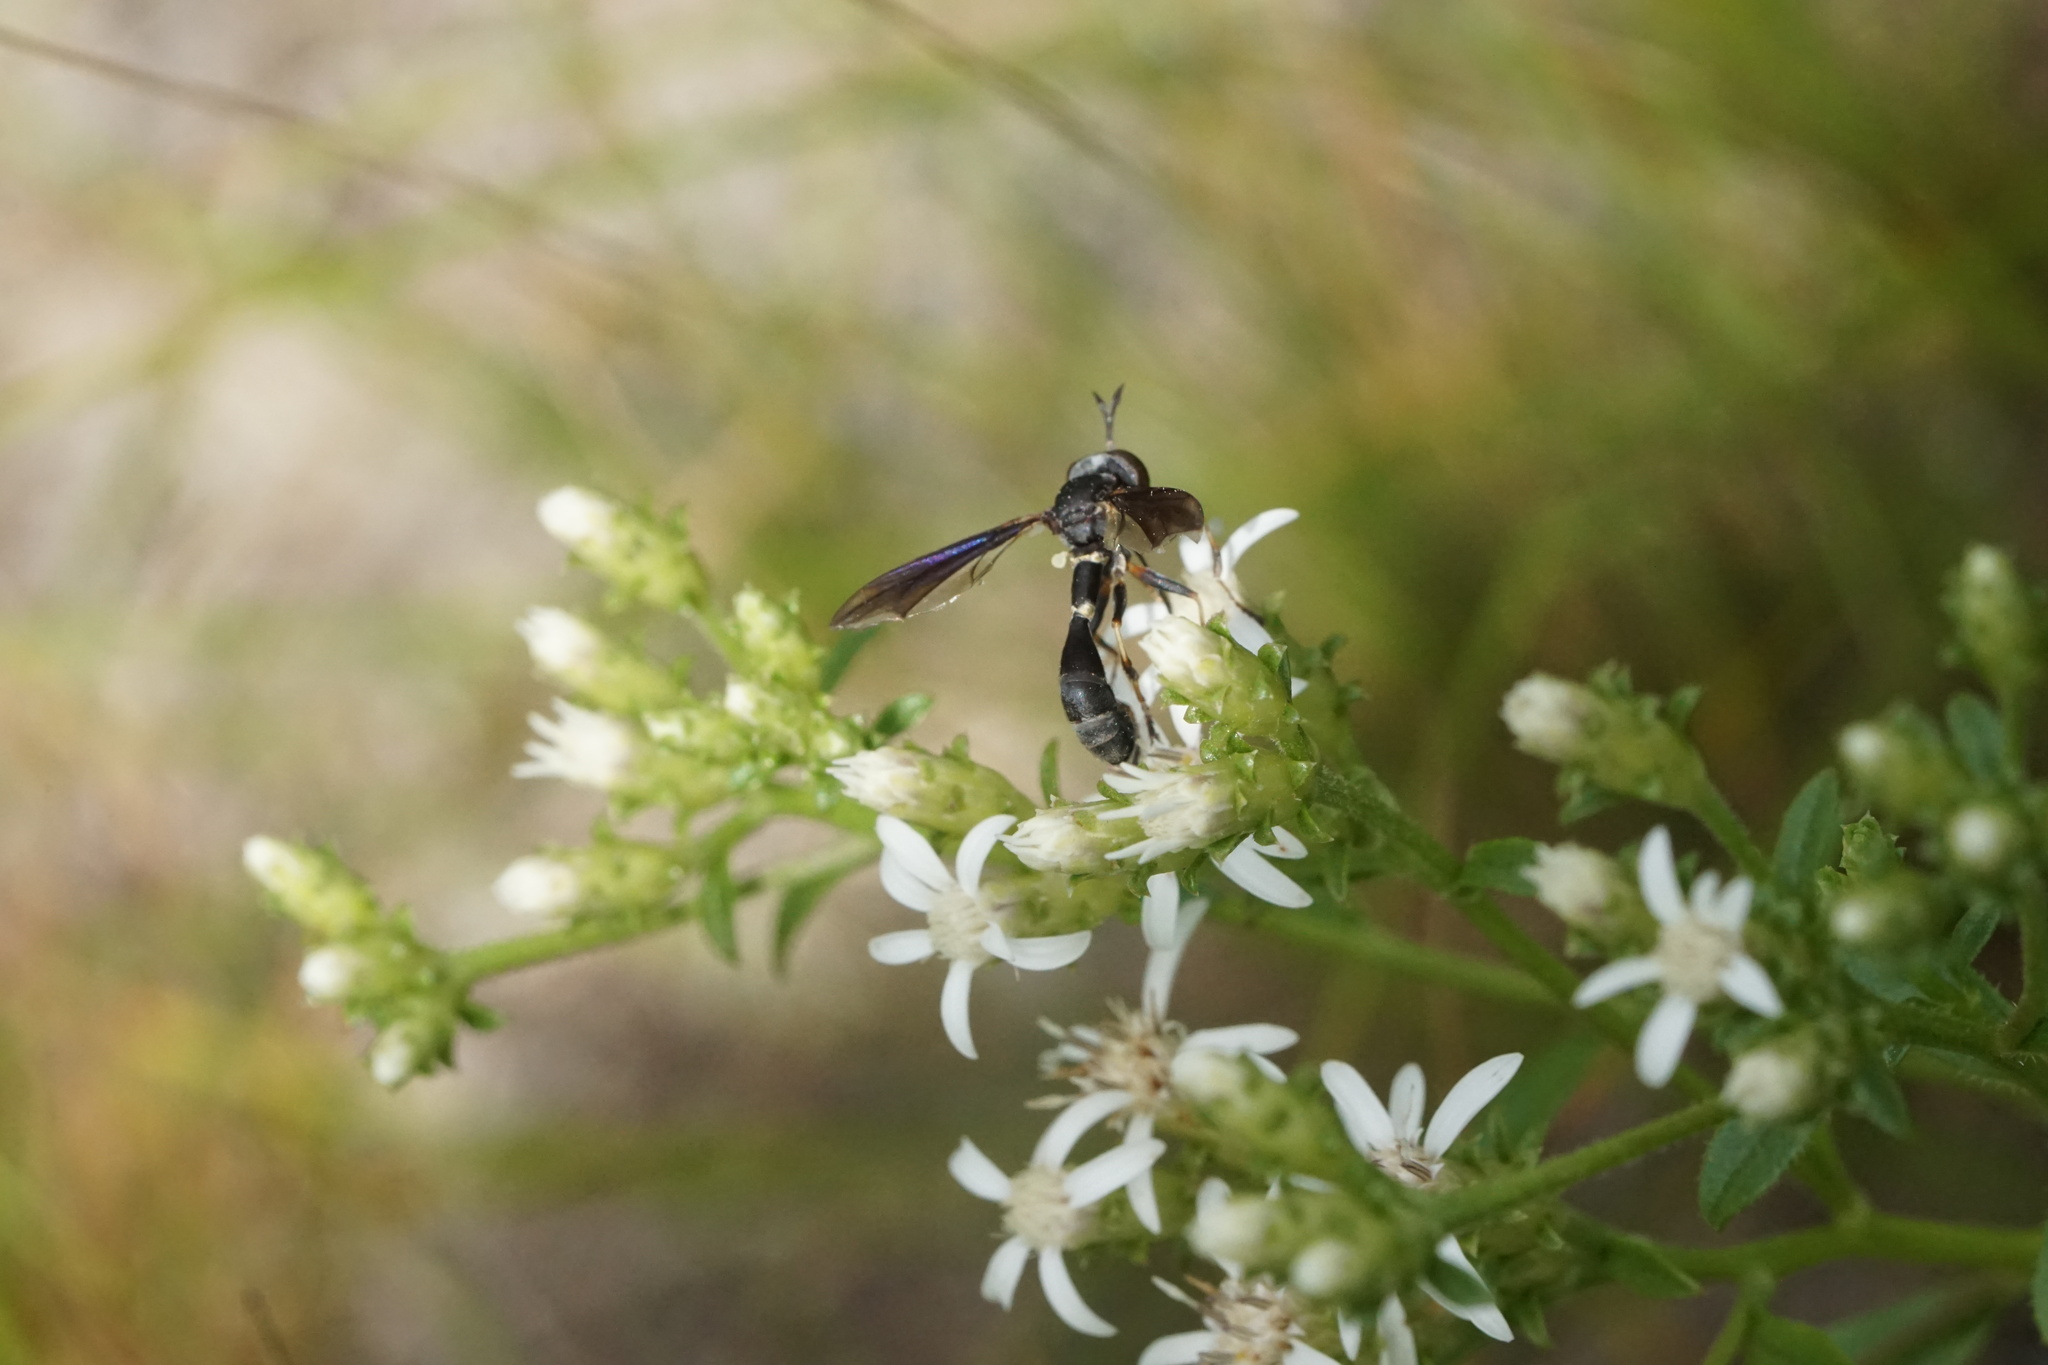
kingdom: Animalia
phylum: Arthropoda
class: Insecta
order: Diptera
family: Conopidae
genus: Physocephala
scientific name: Physocephala tibialis
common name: Common eastern physocephala
